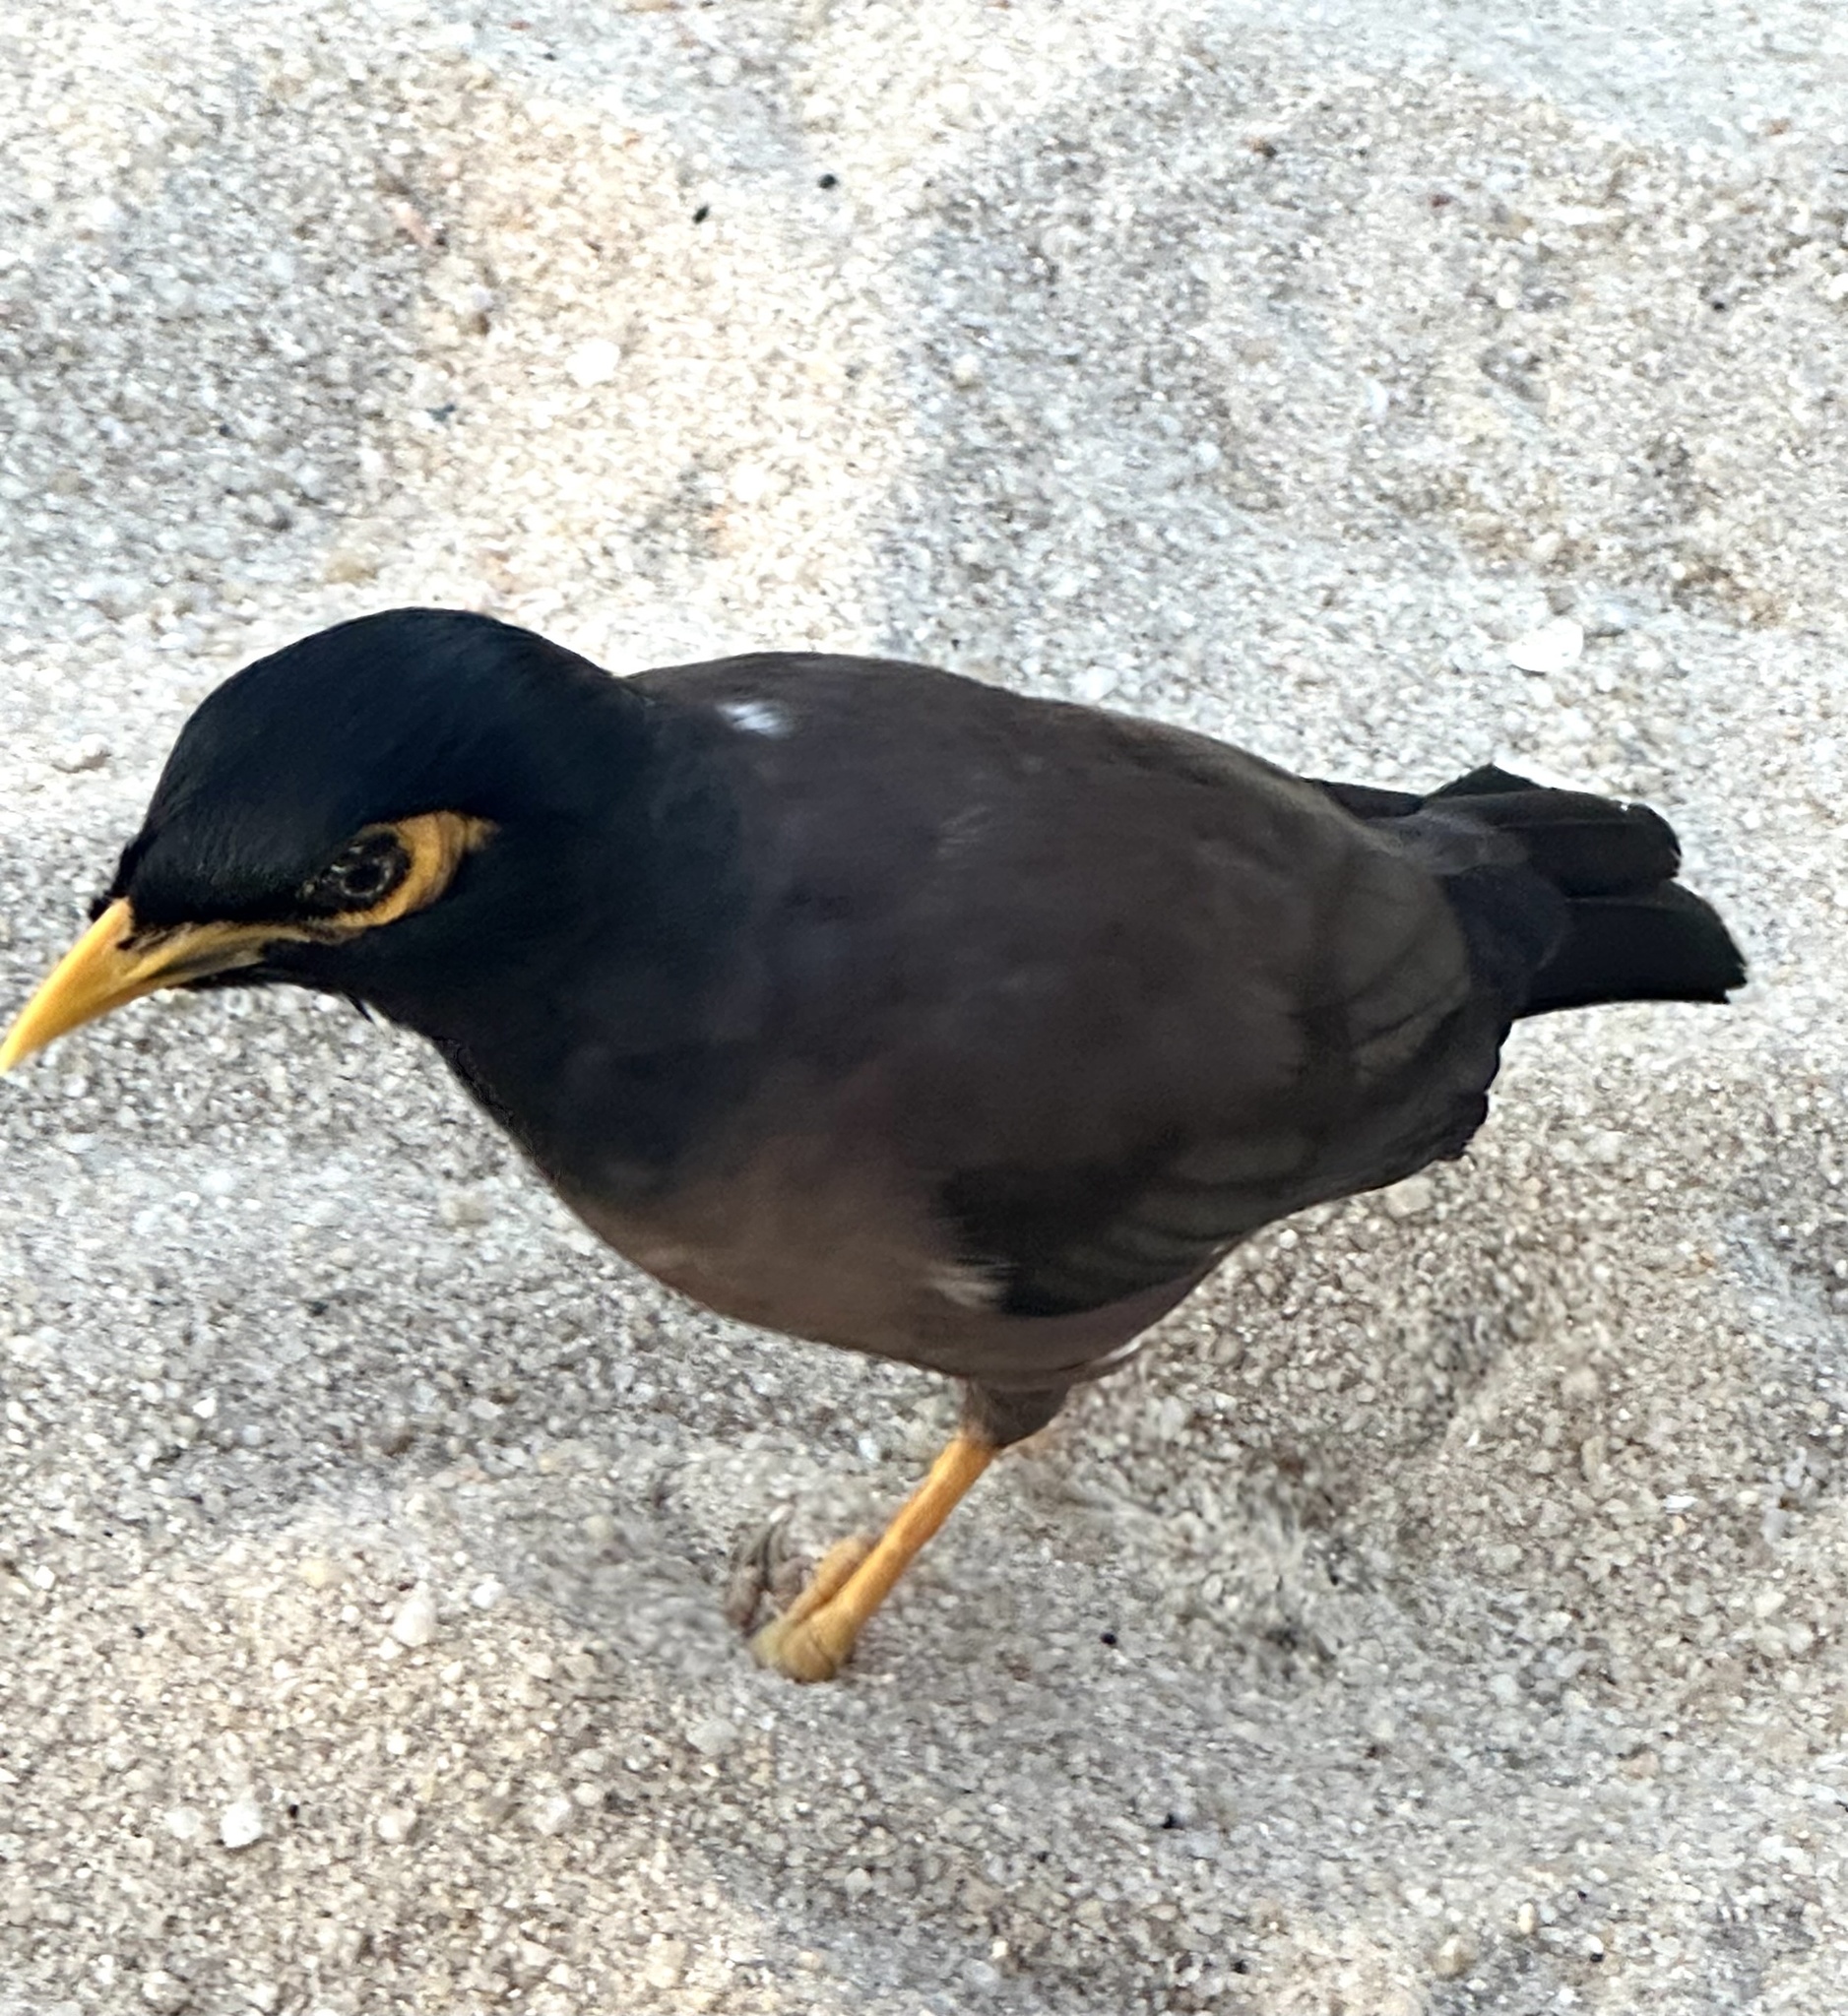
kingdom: Animalia
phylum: Chordata
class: Aves
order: Passeriformes
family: Sturnidae
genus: Acridotheres
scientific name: Acridotheres tristis
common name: Common myna
